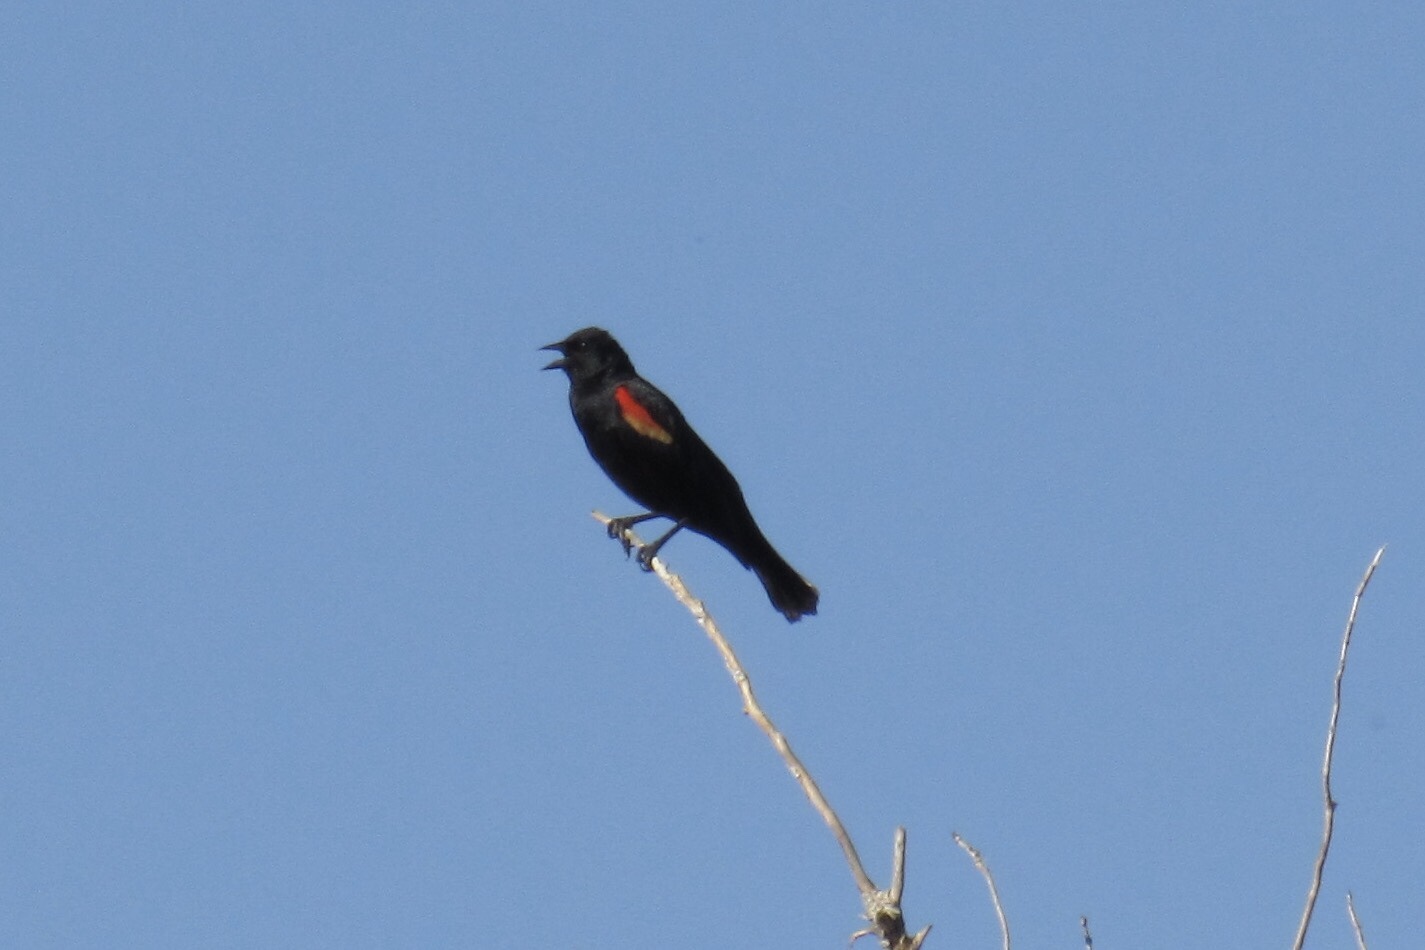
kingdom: Animalia
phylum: Chordata
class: Aves
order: Passeriformes
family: Icteridae
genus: Agelaius
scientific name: Agelaius phoeniceus
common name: Red-winged blackbird
